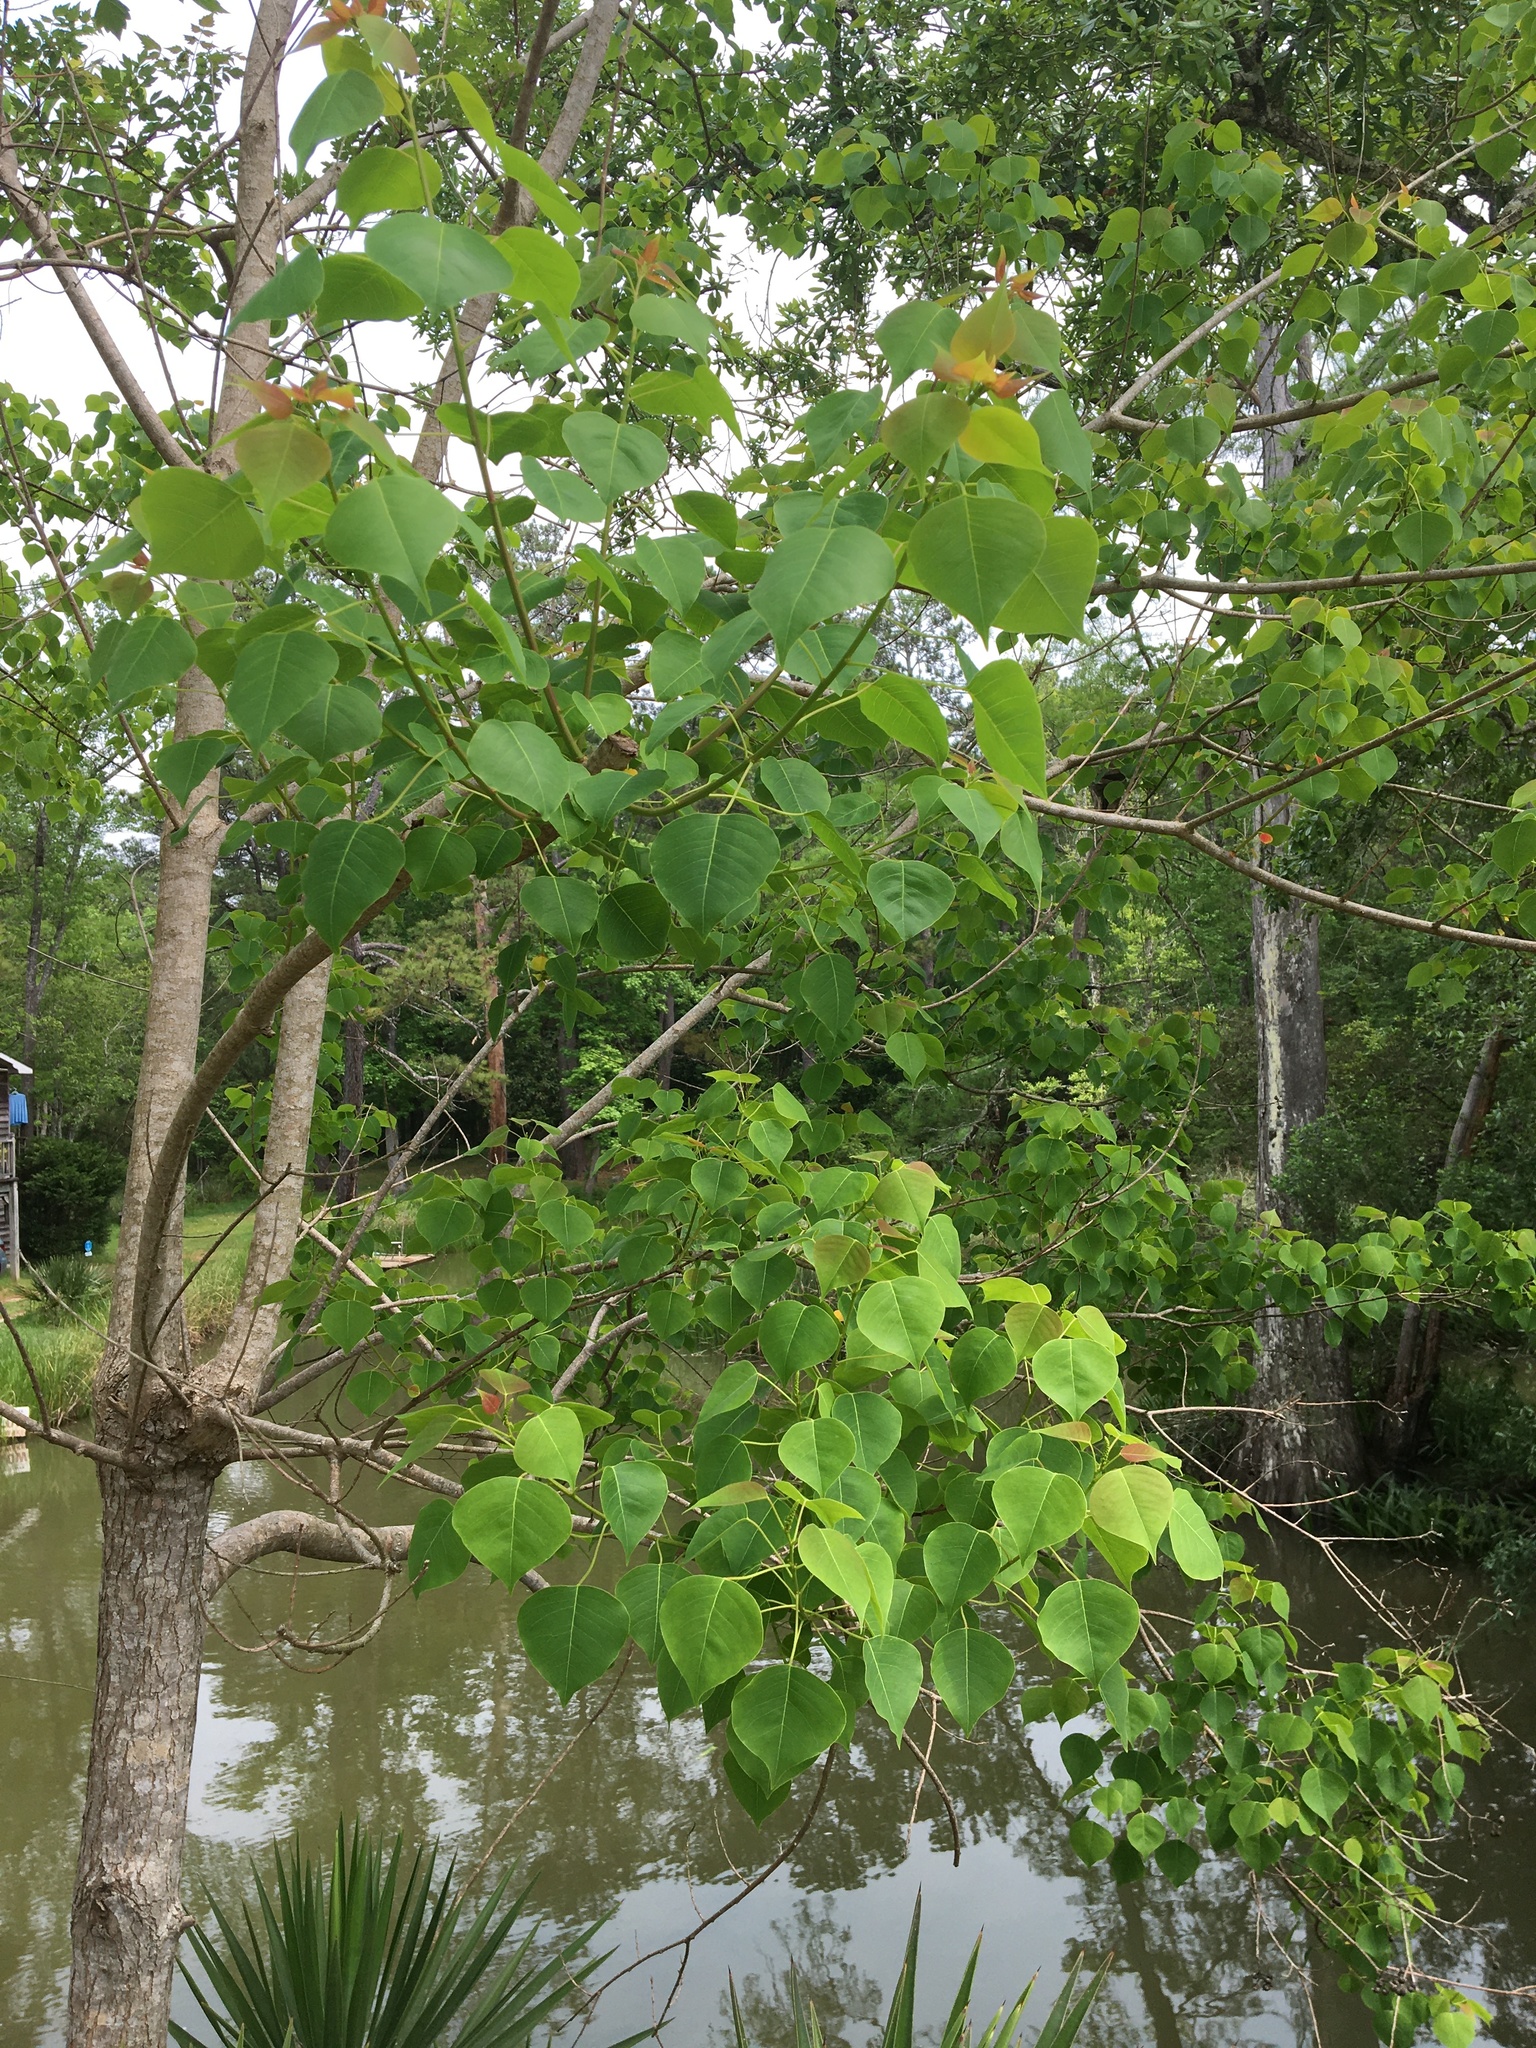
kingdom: Plantae
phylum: Tracheophyta
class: Magnoliopsida
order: Malpighiales
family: Euphorbiaceae
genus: Triadica
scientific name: Triadica sebifera
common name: Chinese tallow
